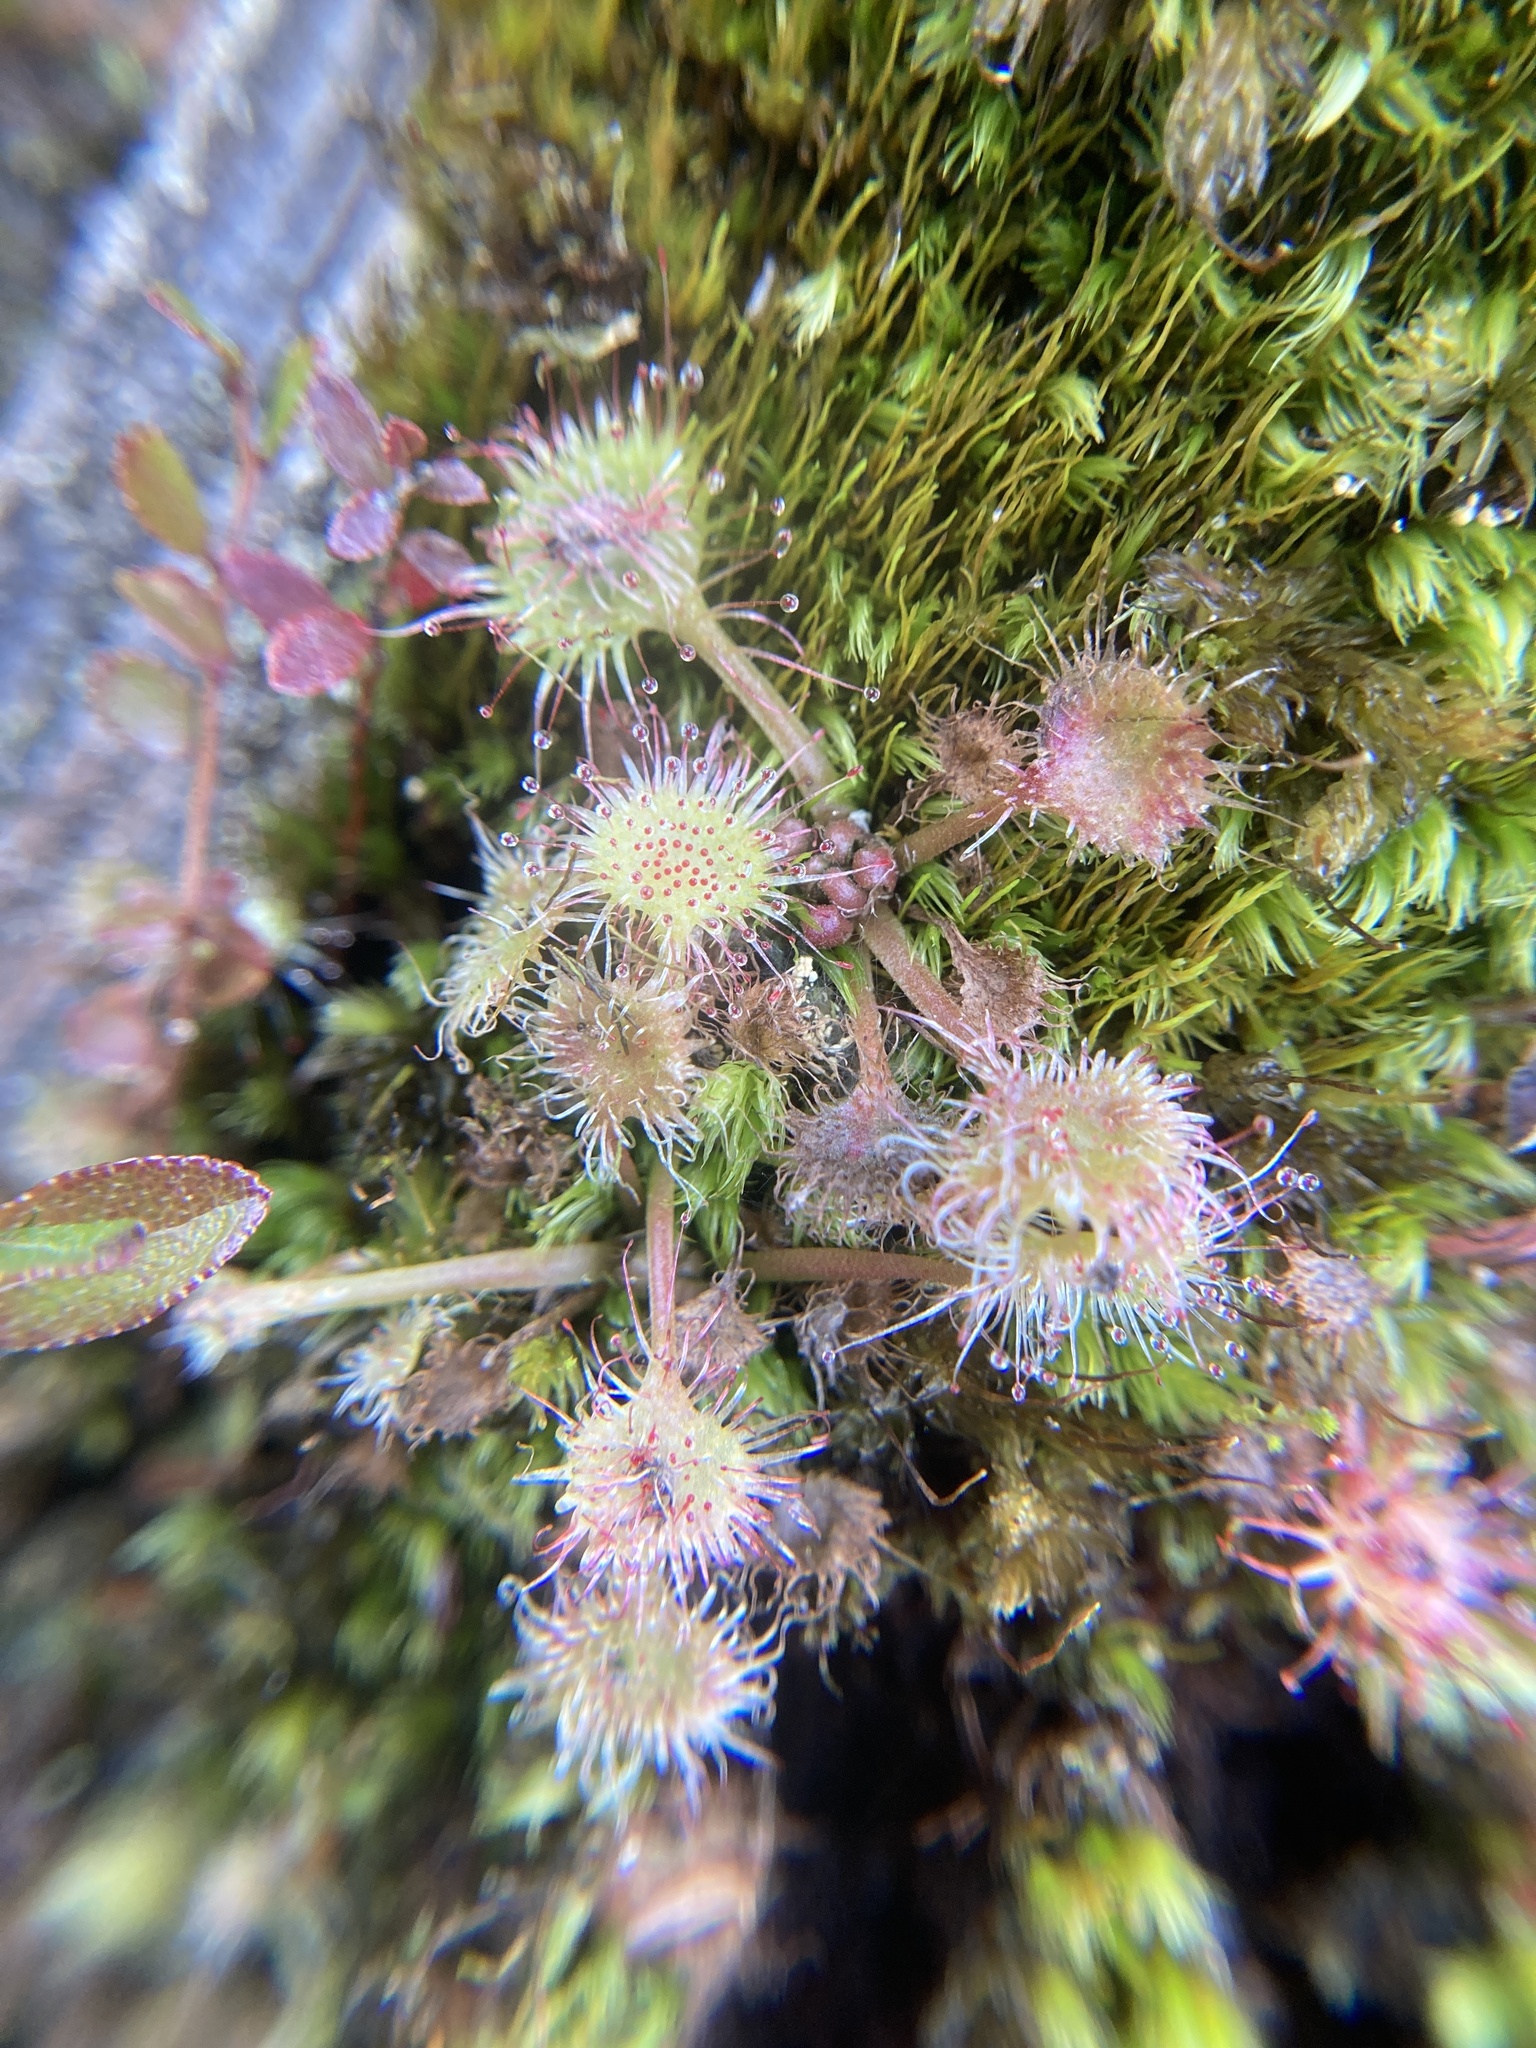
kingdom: Plantae
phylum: Tracheophyta
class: Magnoliopsida
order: Caryophyllales
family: Droseraceae
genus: Drosera
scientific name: Drosera rotundifolia
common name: Round-leaved sundew
